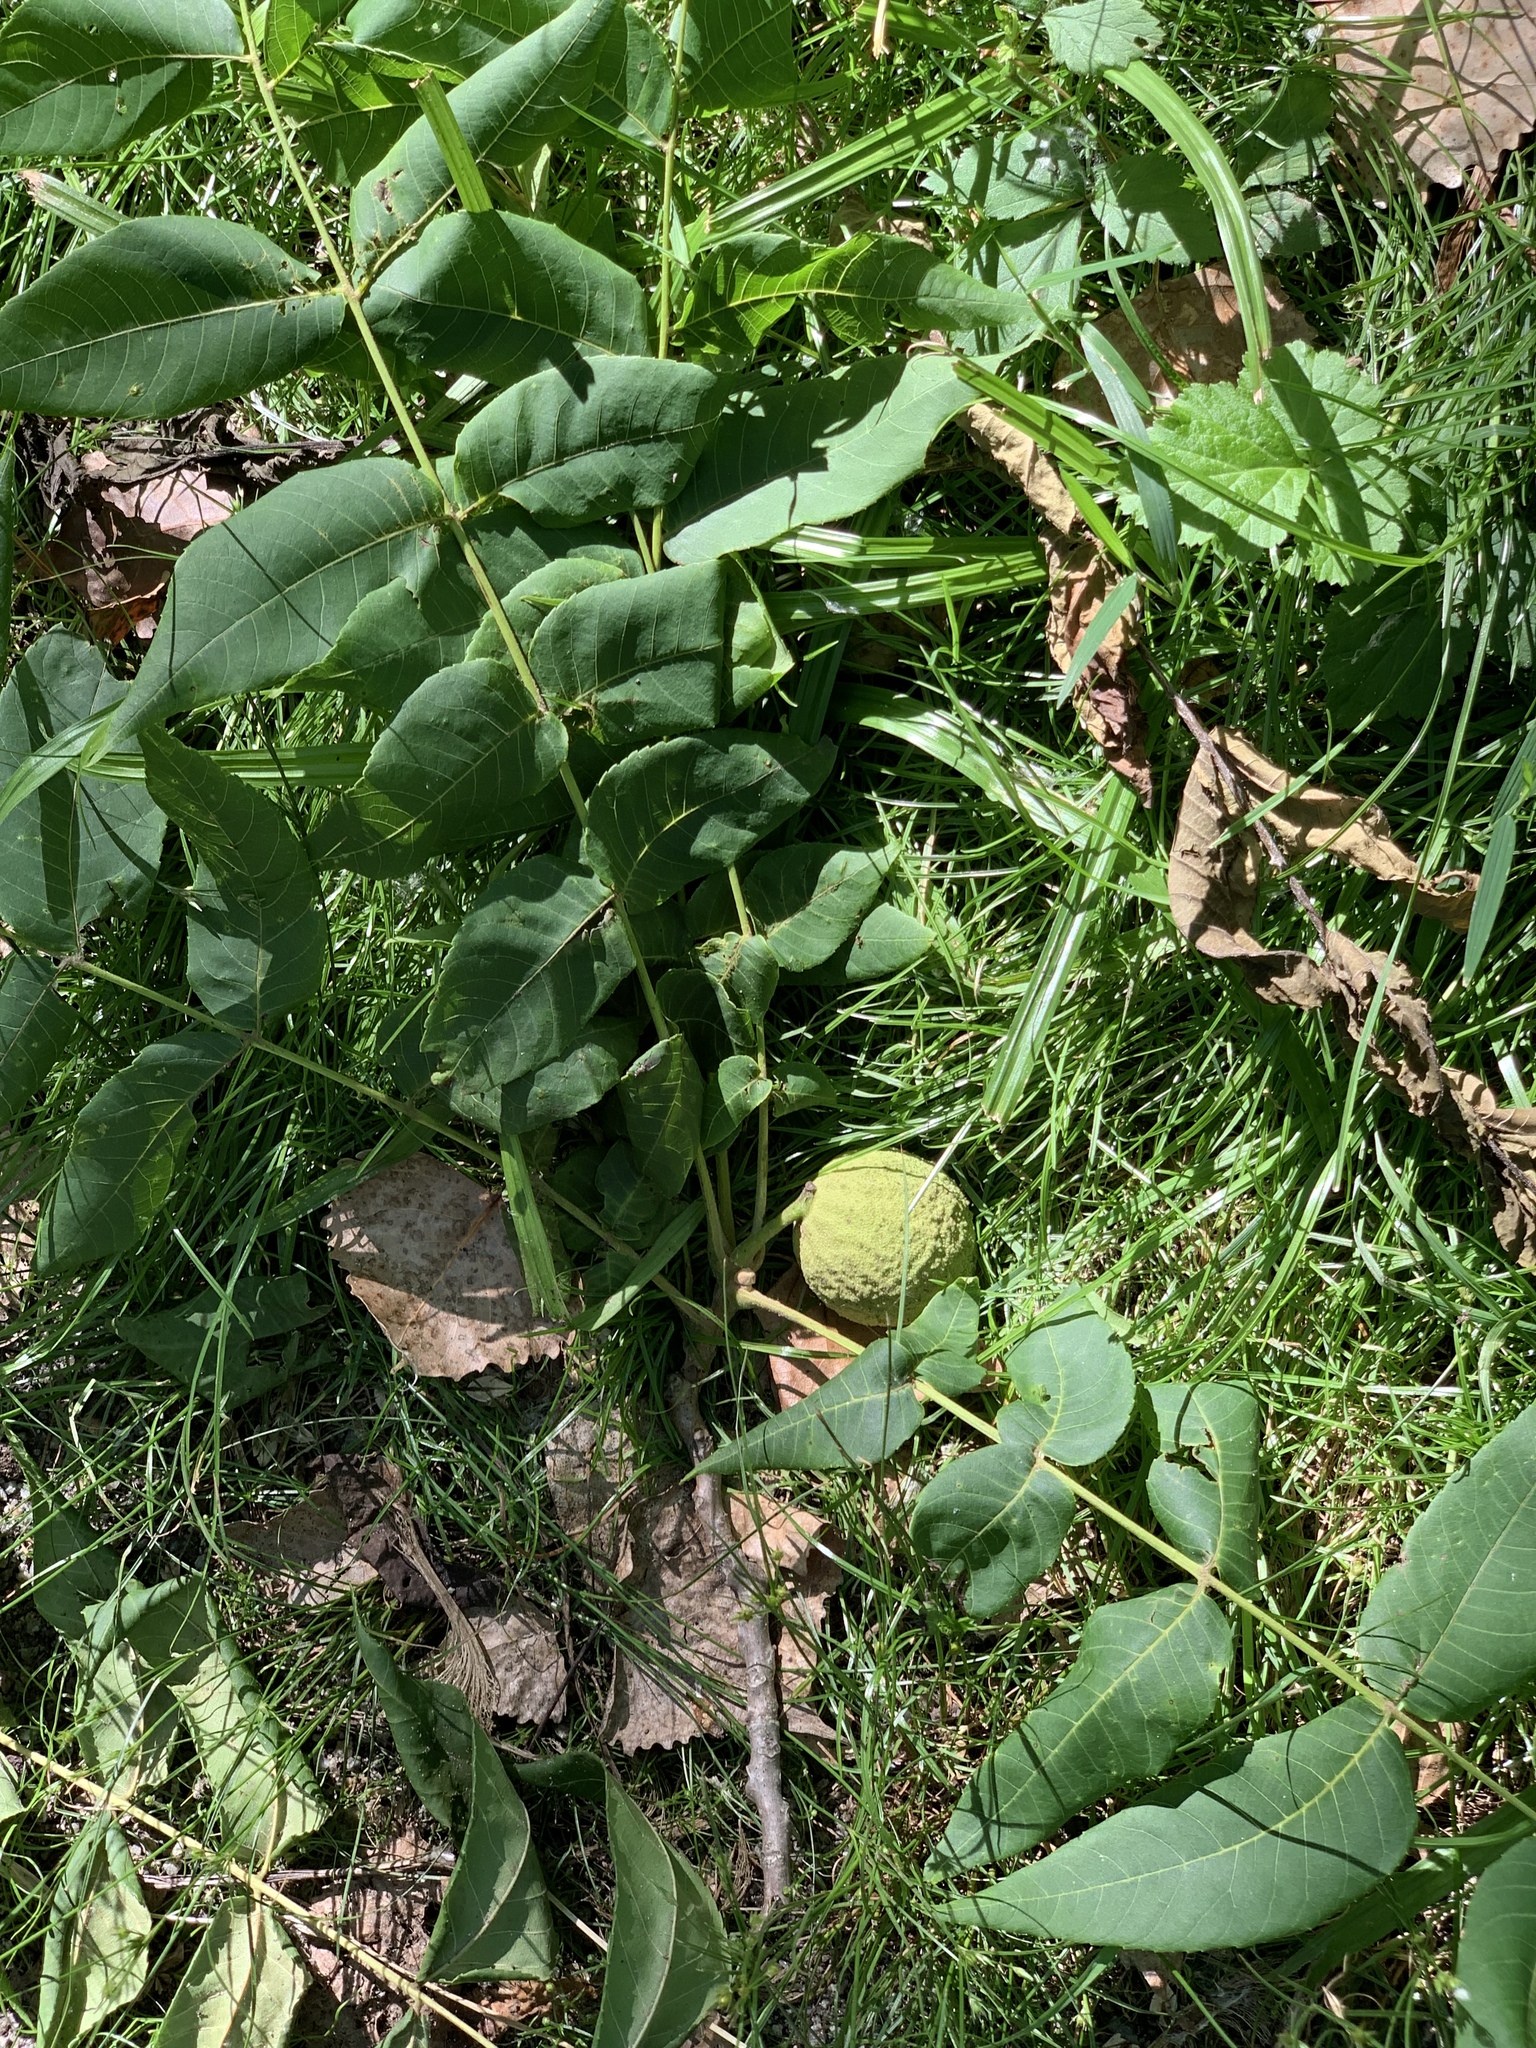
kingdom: Plantae
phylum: Tracheophyta
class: Magnoliopsida
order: Fagales
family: Juglandaceae
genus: Juglans
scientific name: Juglans nigra
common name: Black walnut
